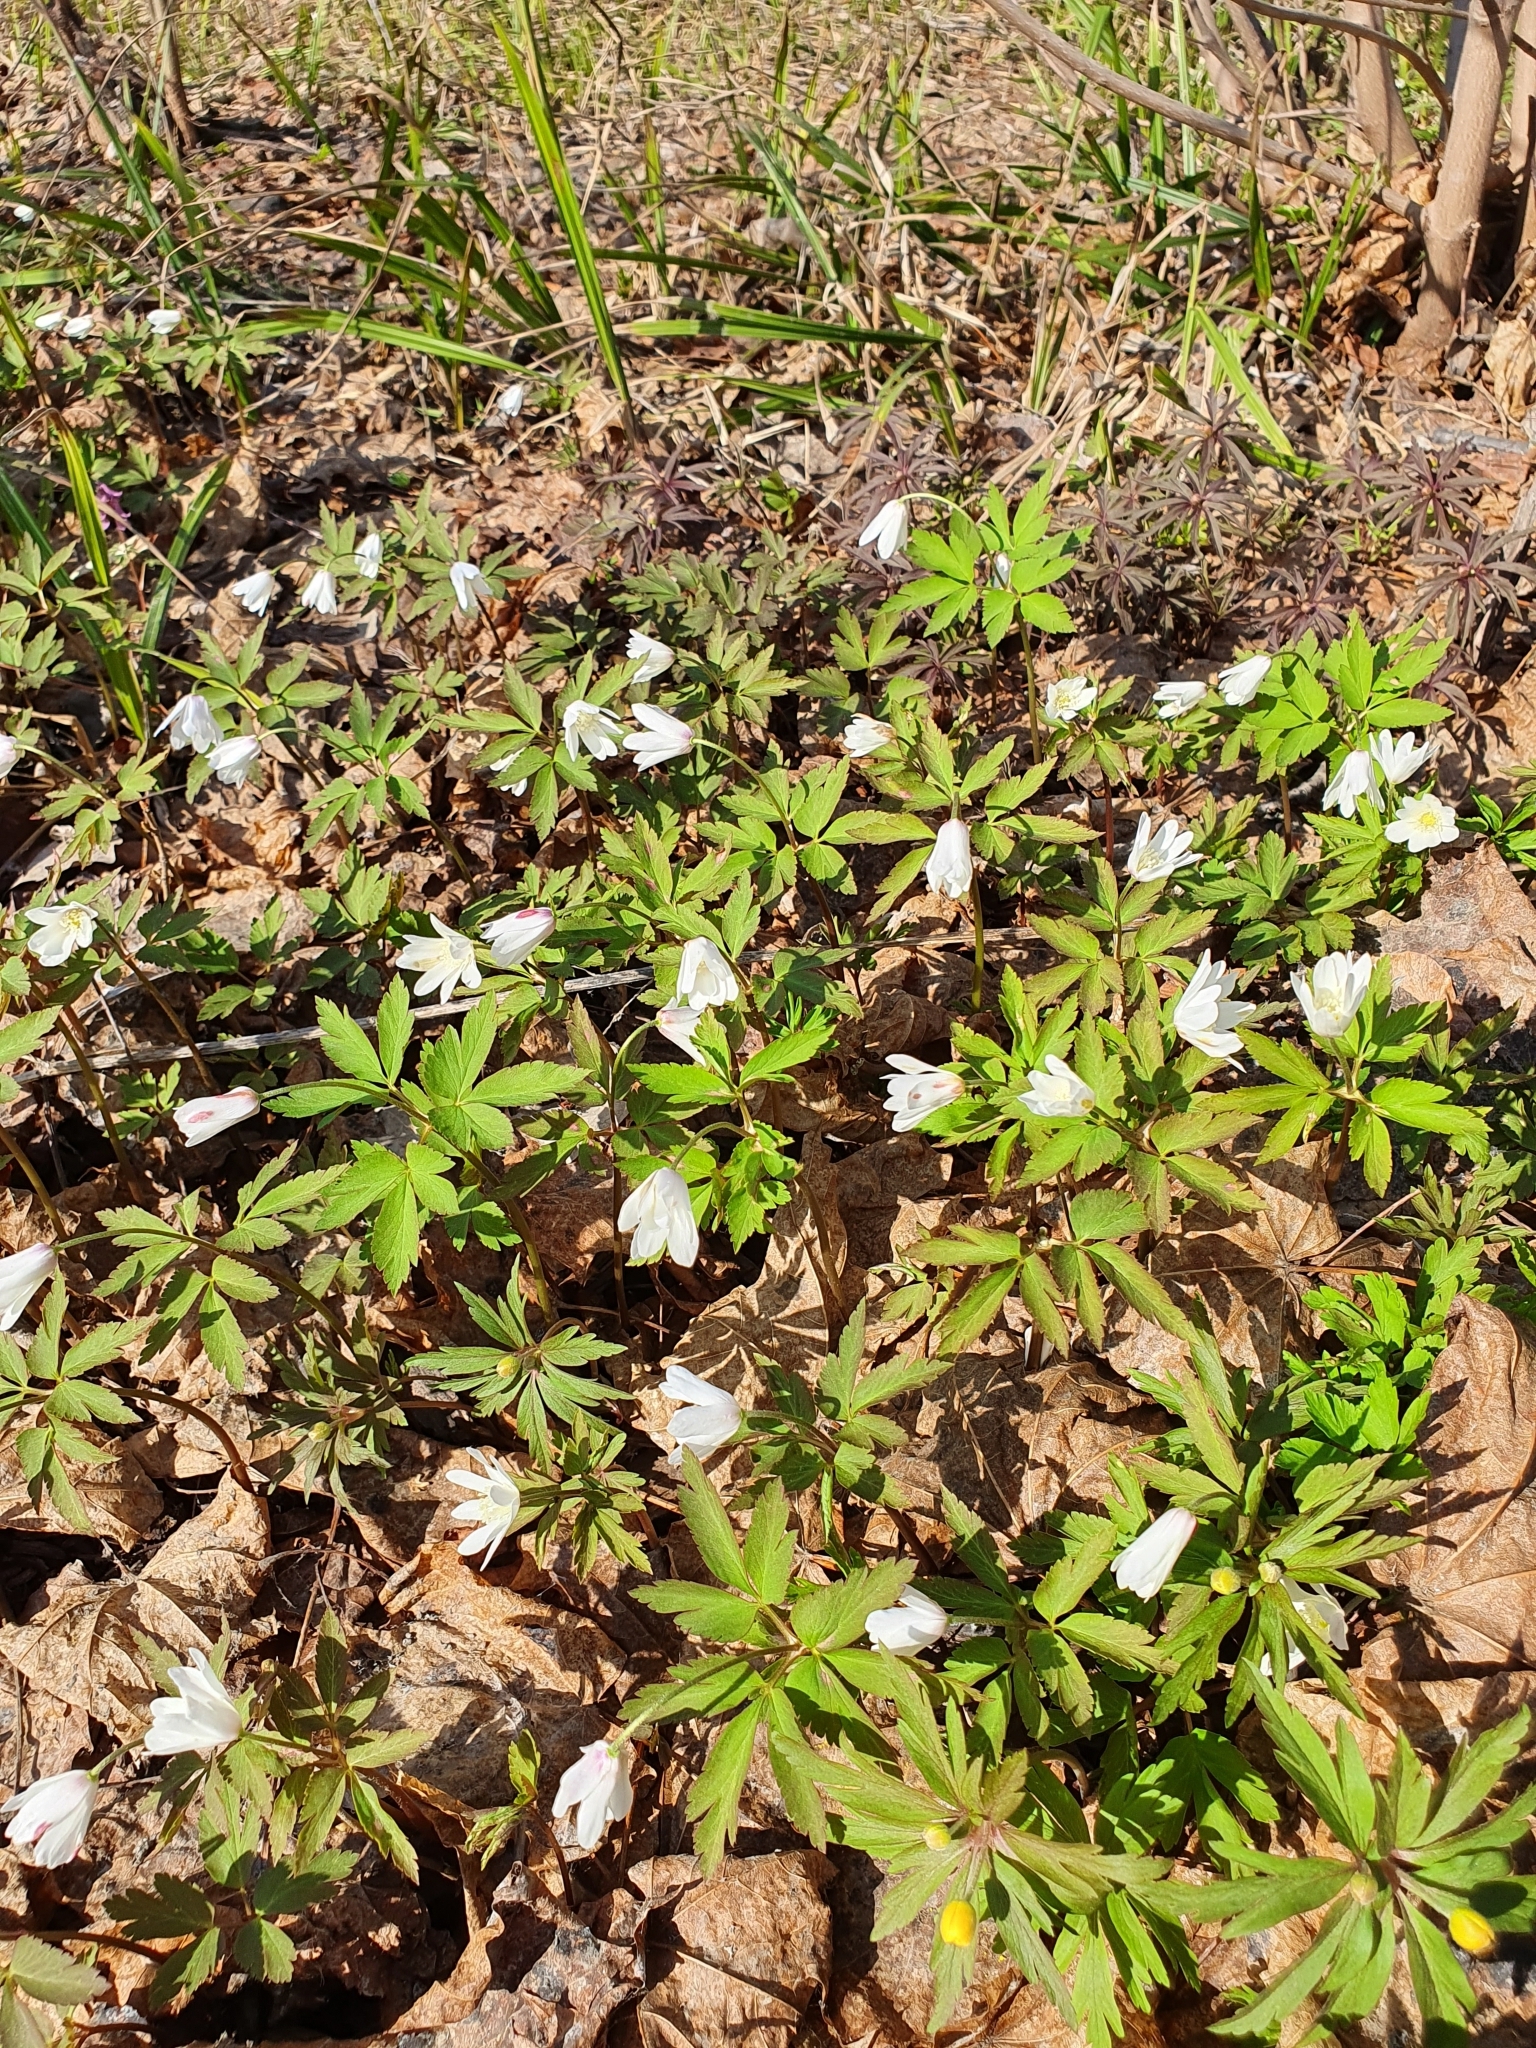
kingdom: Plantae
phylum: Tracheophyta
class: Magnoliopsida
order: Ranunculales
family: Ranunculaceae
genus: Anemone
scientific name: Anemone altaica
